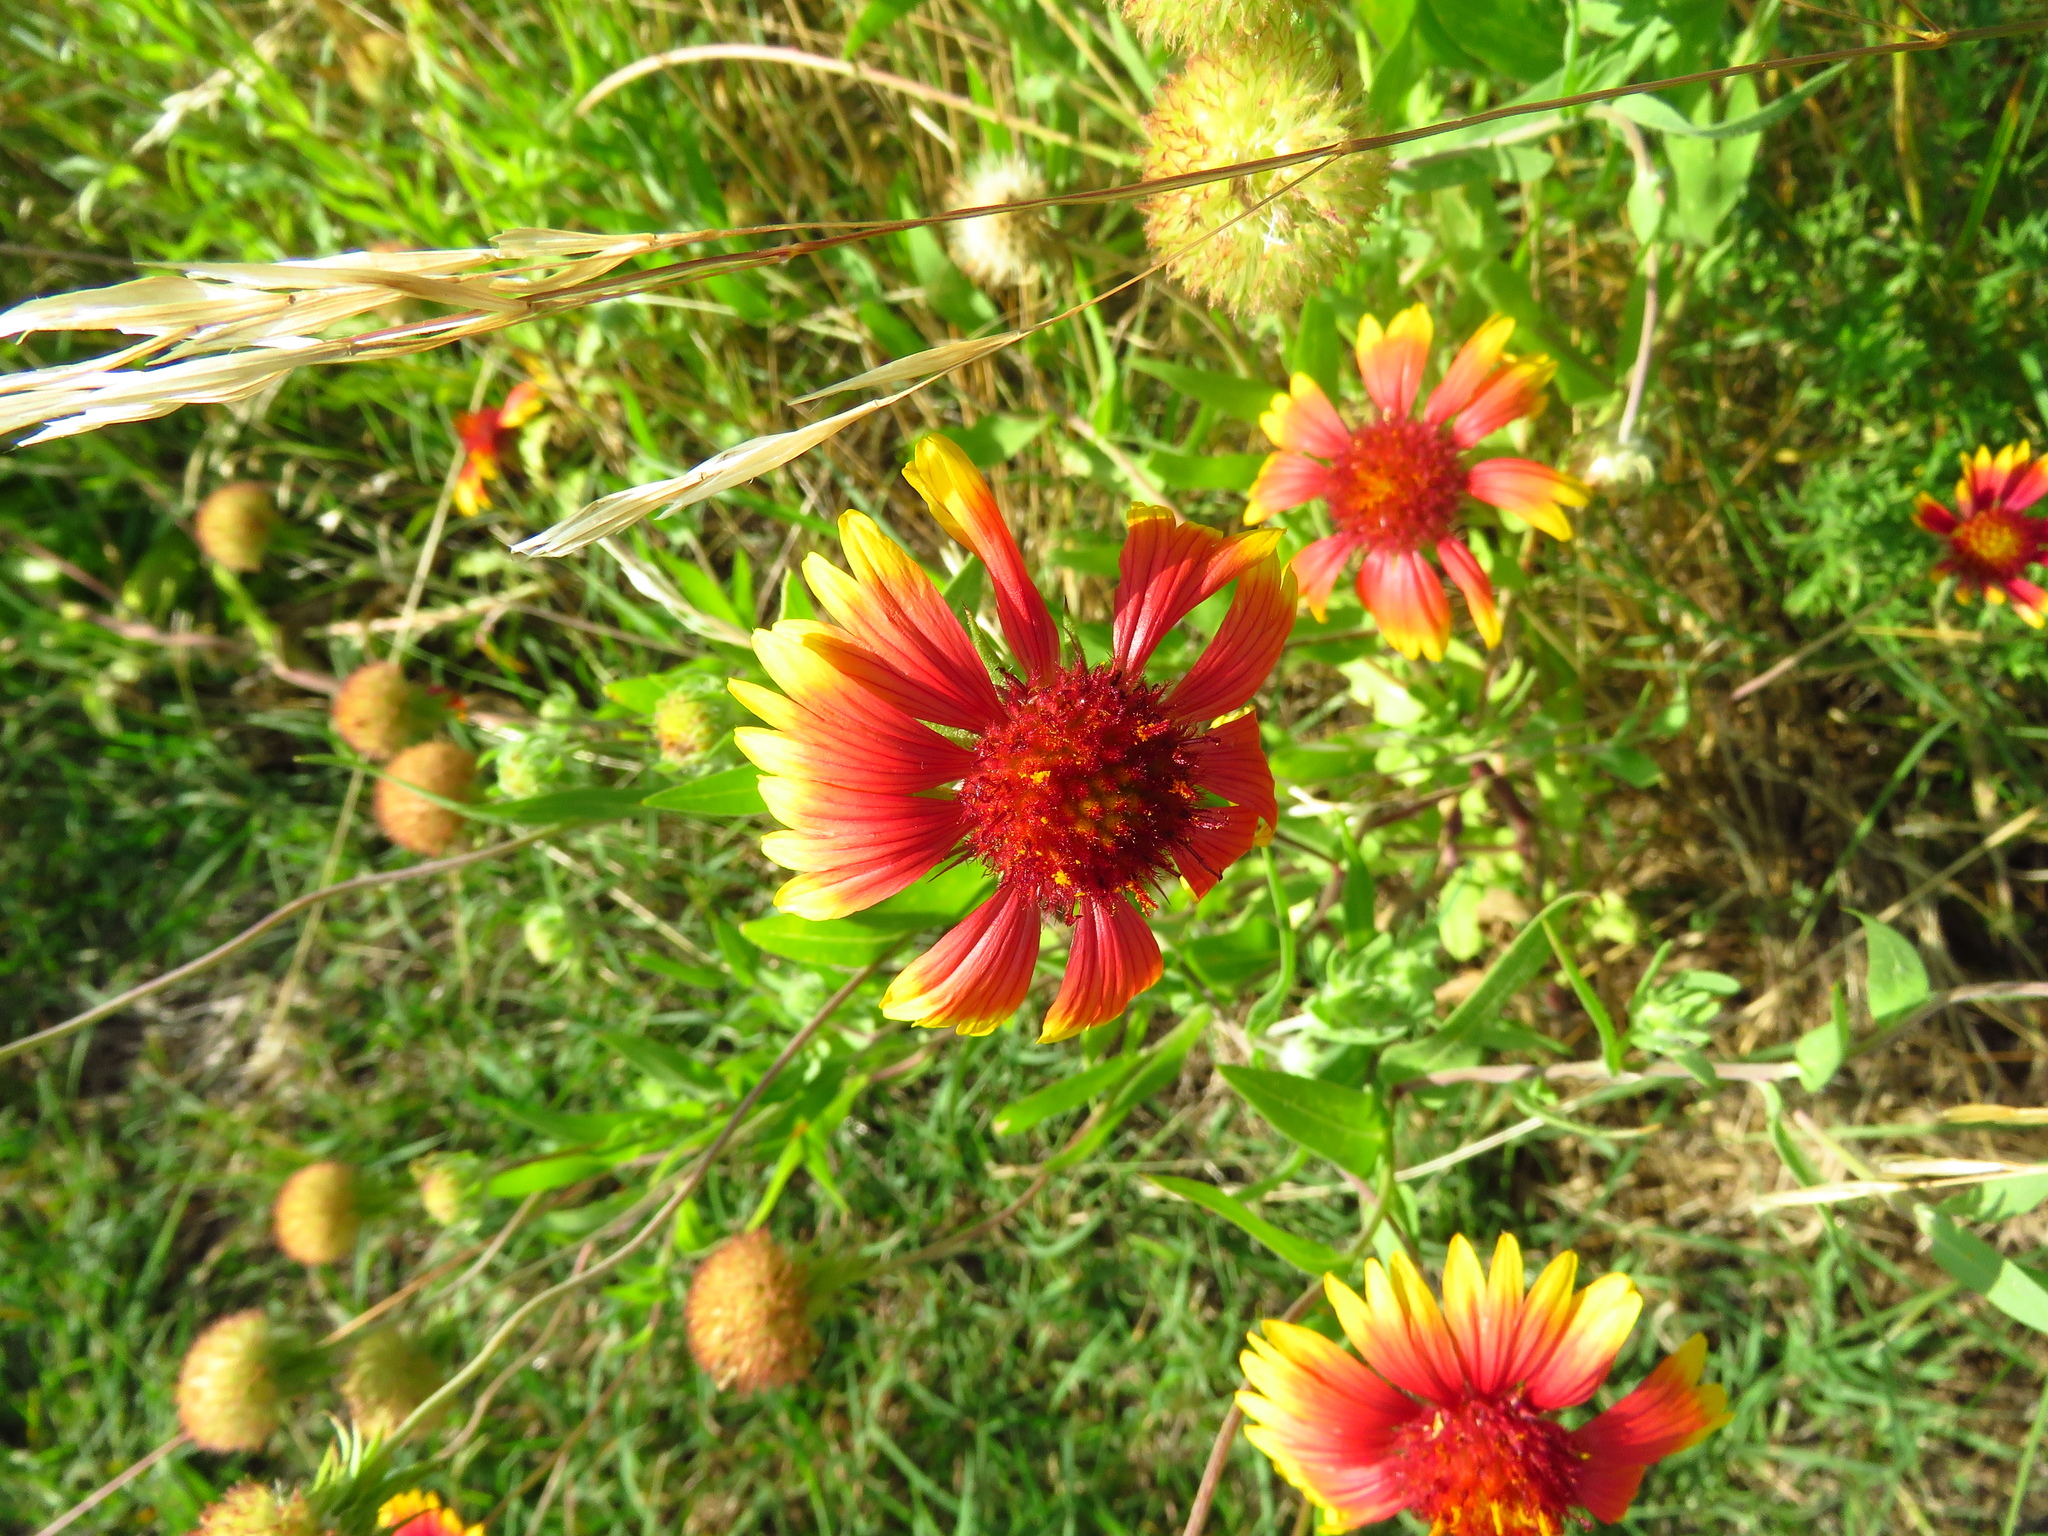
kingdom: Plantae
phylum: Tracheophyta
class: Magnoliopsida
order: Asterales
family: Asteraceae
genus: Gaillardia
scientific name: Gaillardia pulchella
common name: Firewheel
